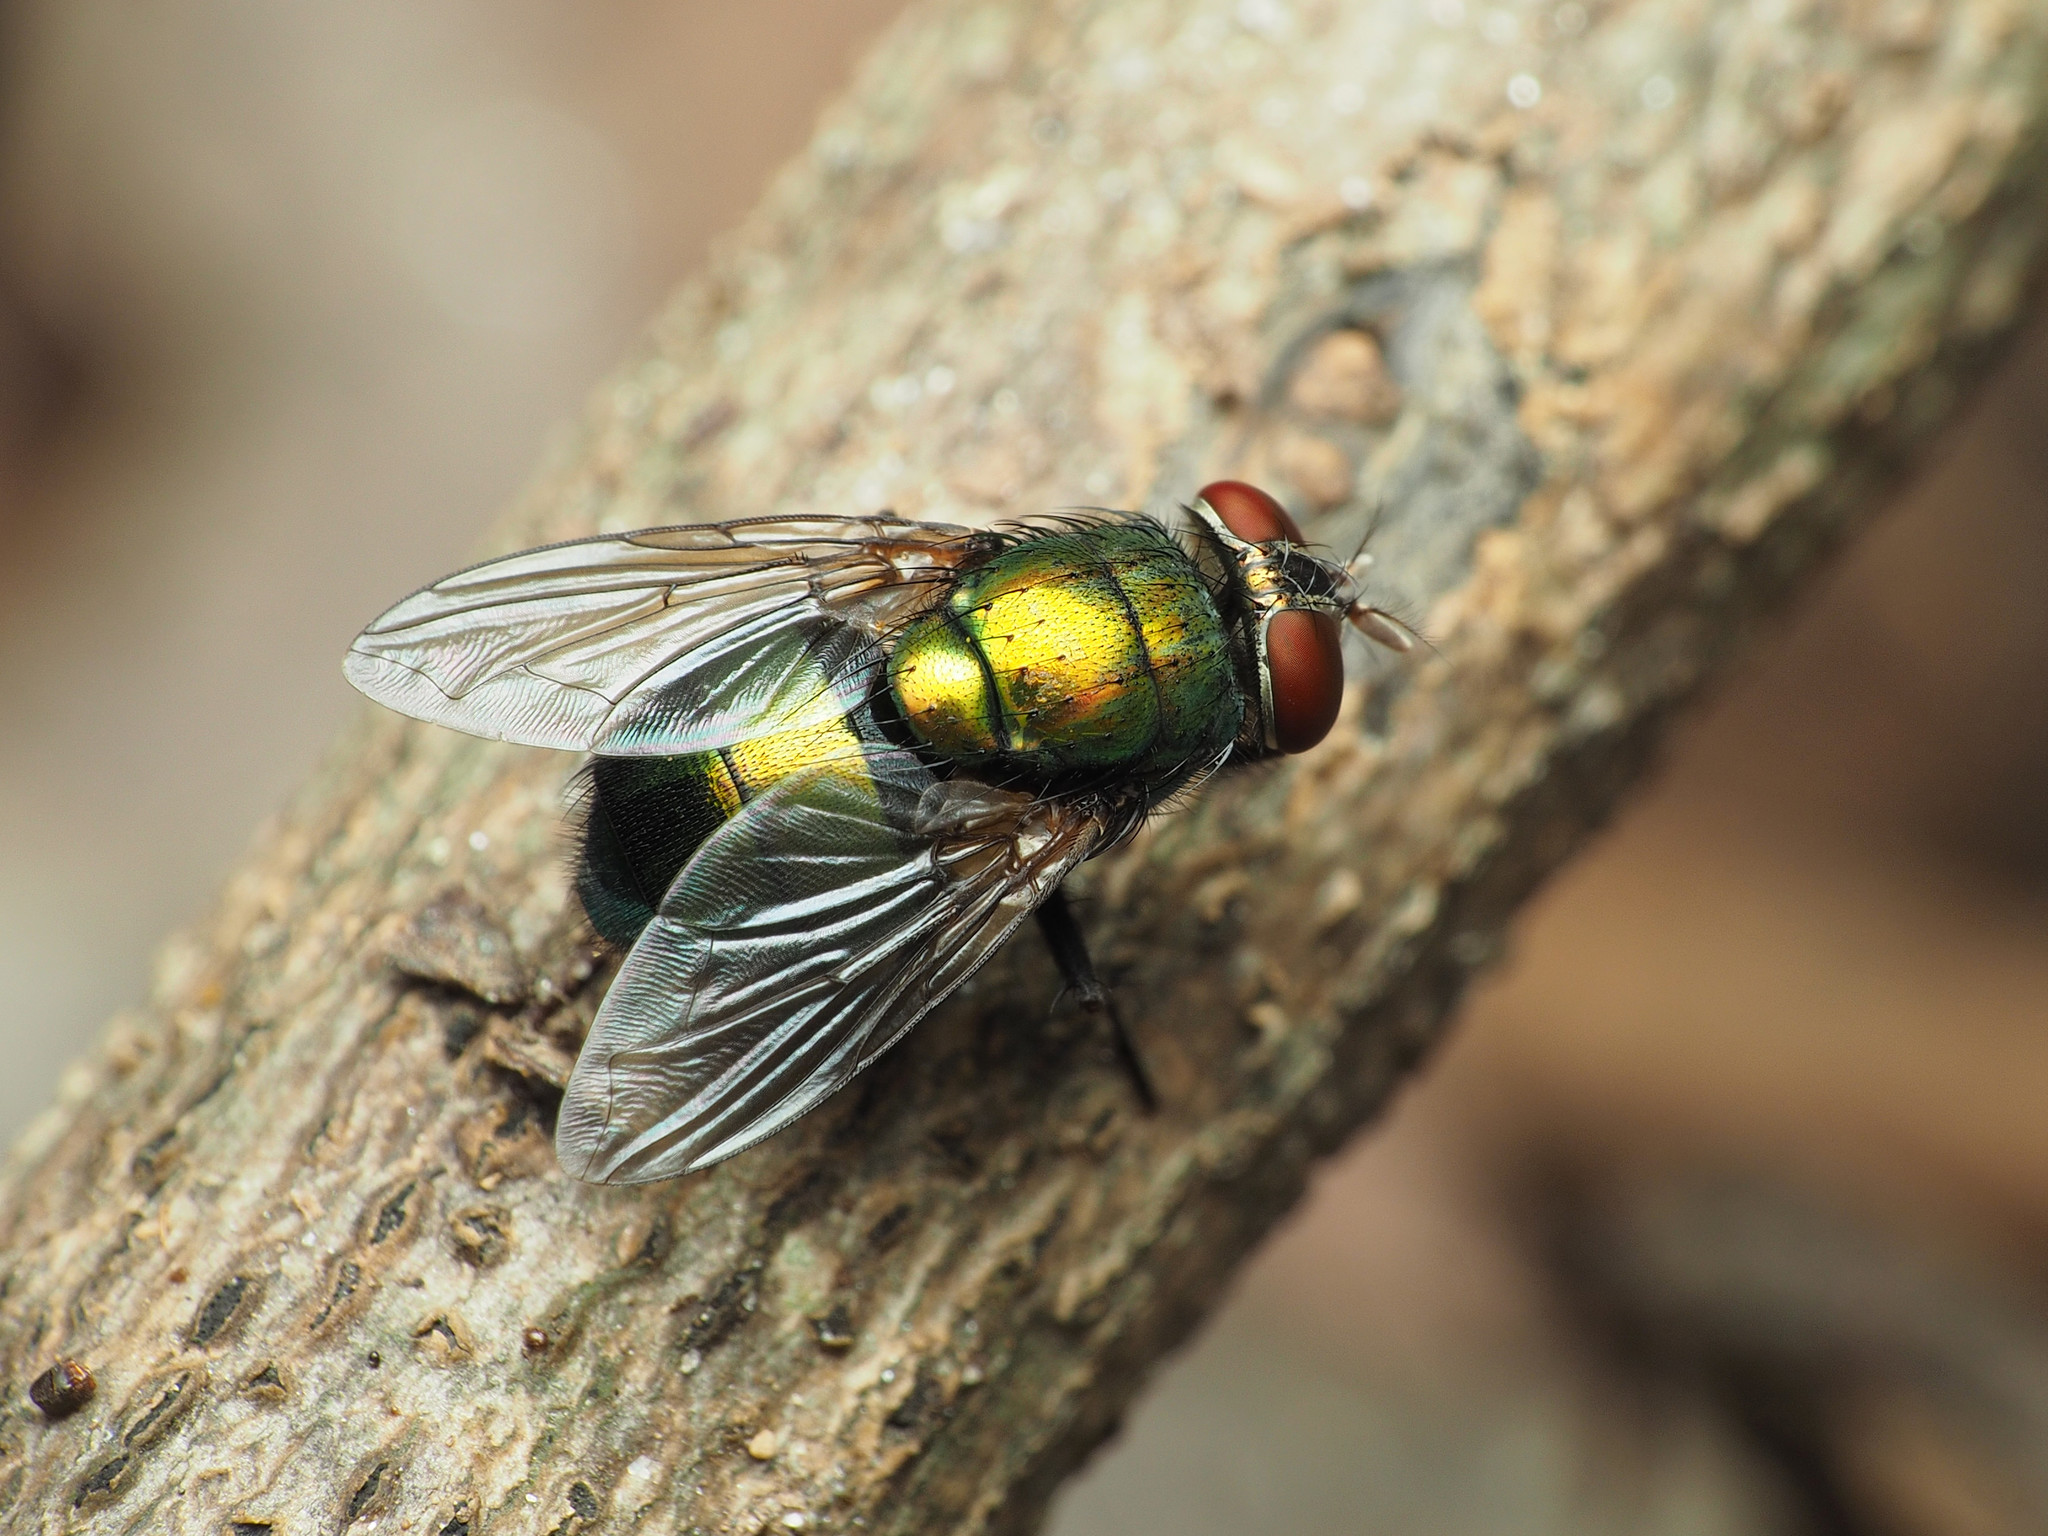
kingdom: Animalia
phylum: Arthropoda
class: Insecta
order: Diptera
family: Calliphoridae
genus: Lucilia
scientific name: Lucilia illustris
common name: Illustrious greenbottle
